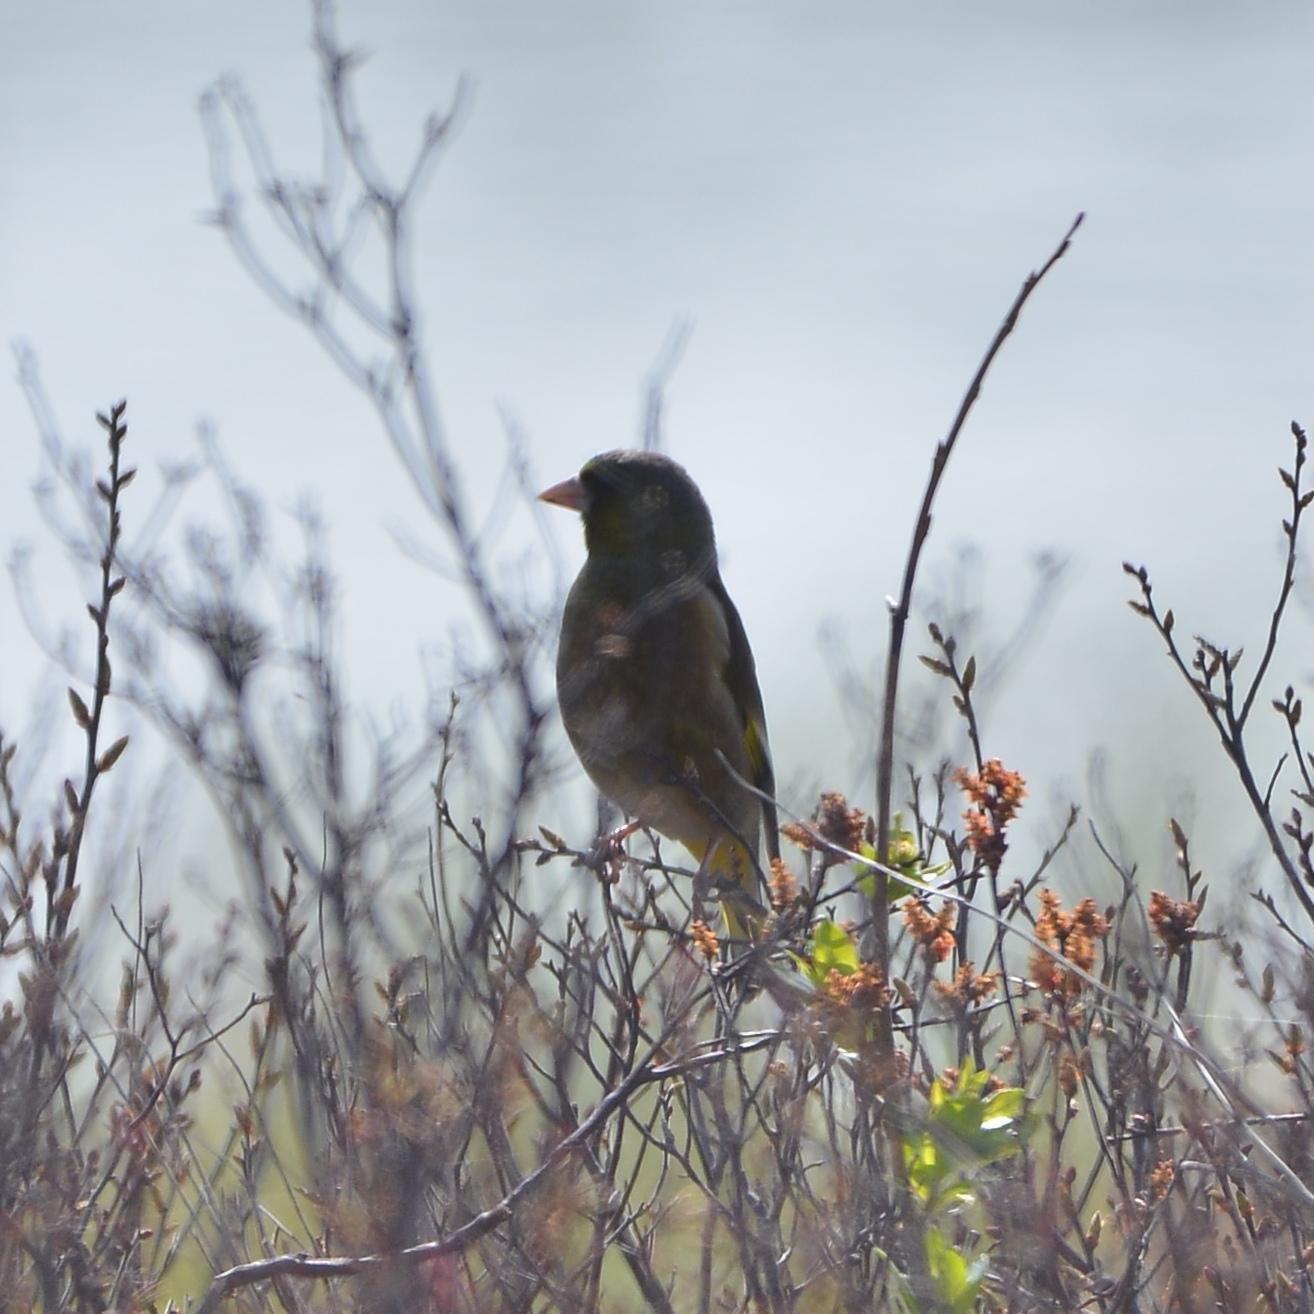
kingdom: Plantae
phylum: Tracheophyta
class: Liliopsida
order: Poales
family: Poaceae
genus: Chloris
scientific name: Chloris sinica
